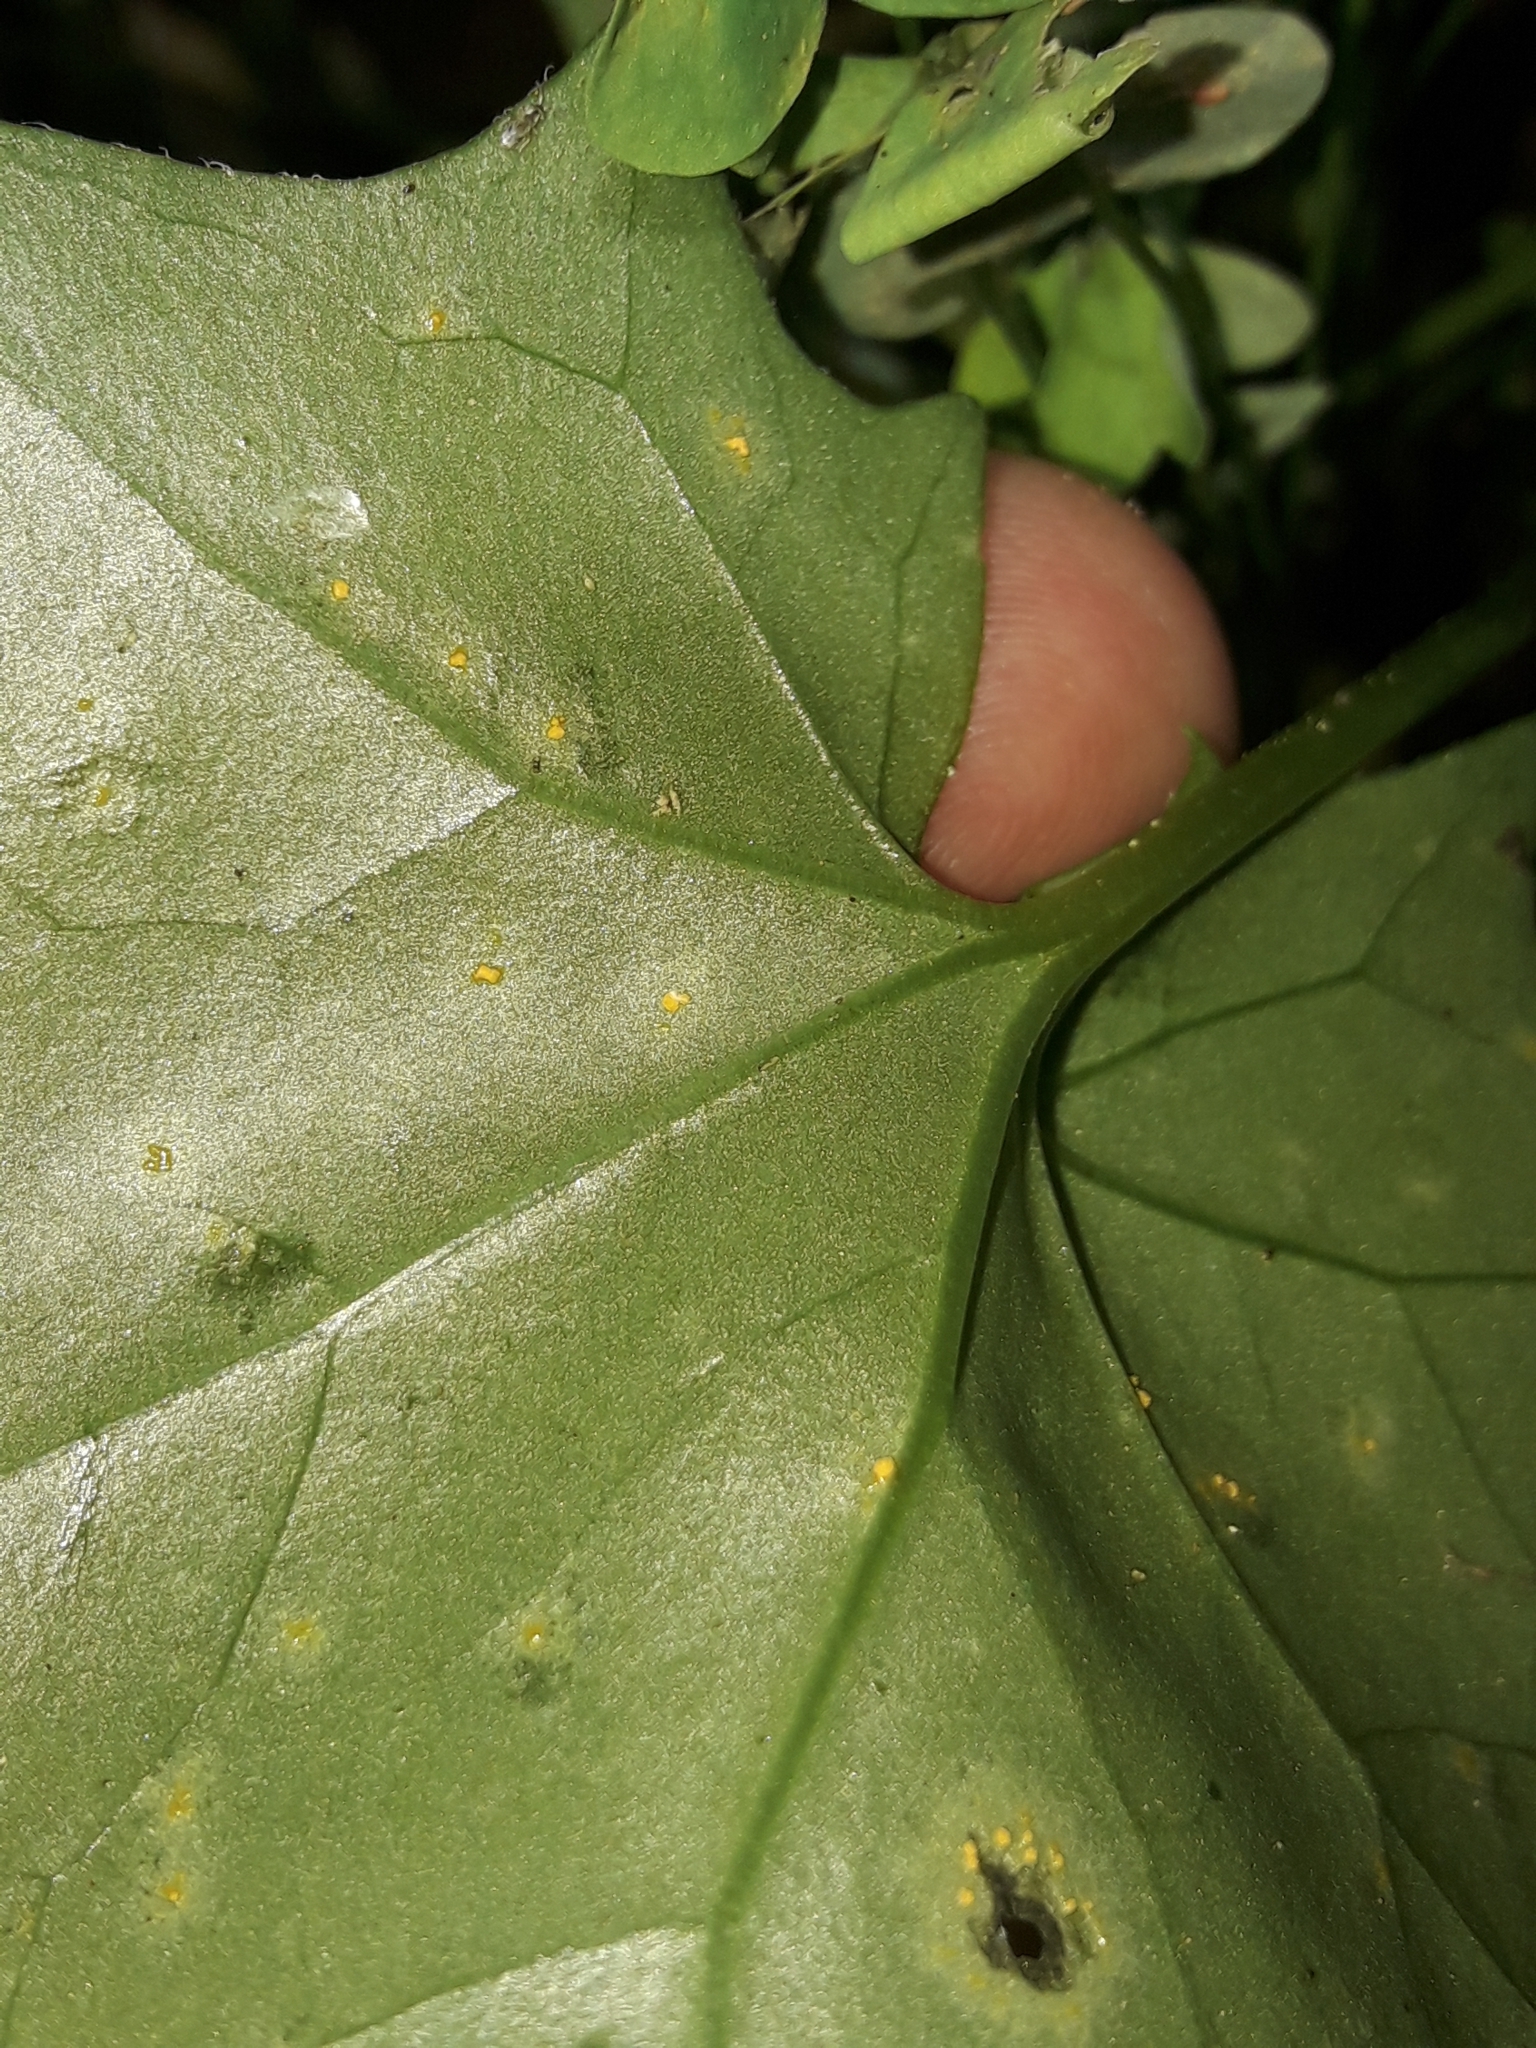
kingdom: Fungi
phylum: Basidiomycota
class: Pucciniomycetes
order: Pucciniales
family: Coleosporiaceae
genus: Coleosporium
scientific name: Coleosporium tussilaginis
